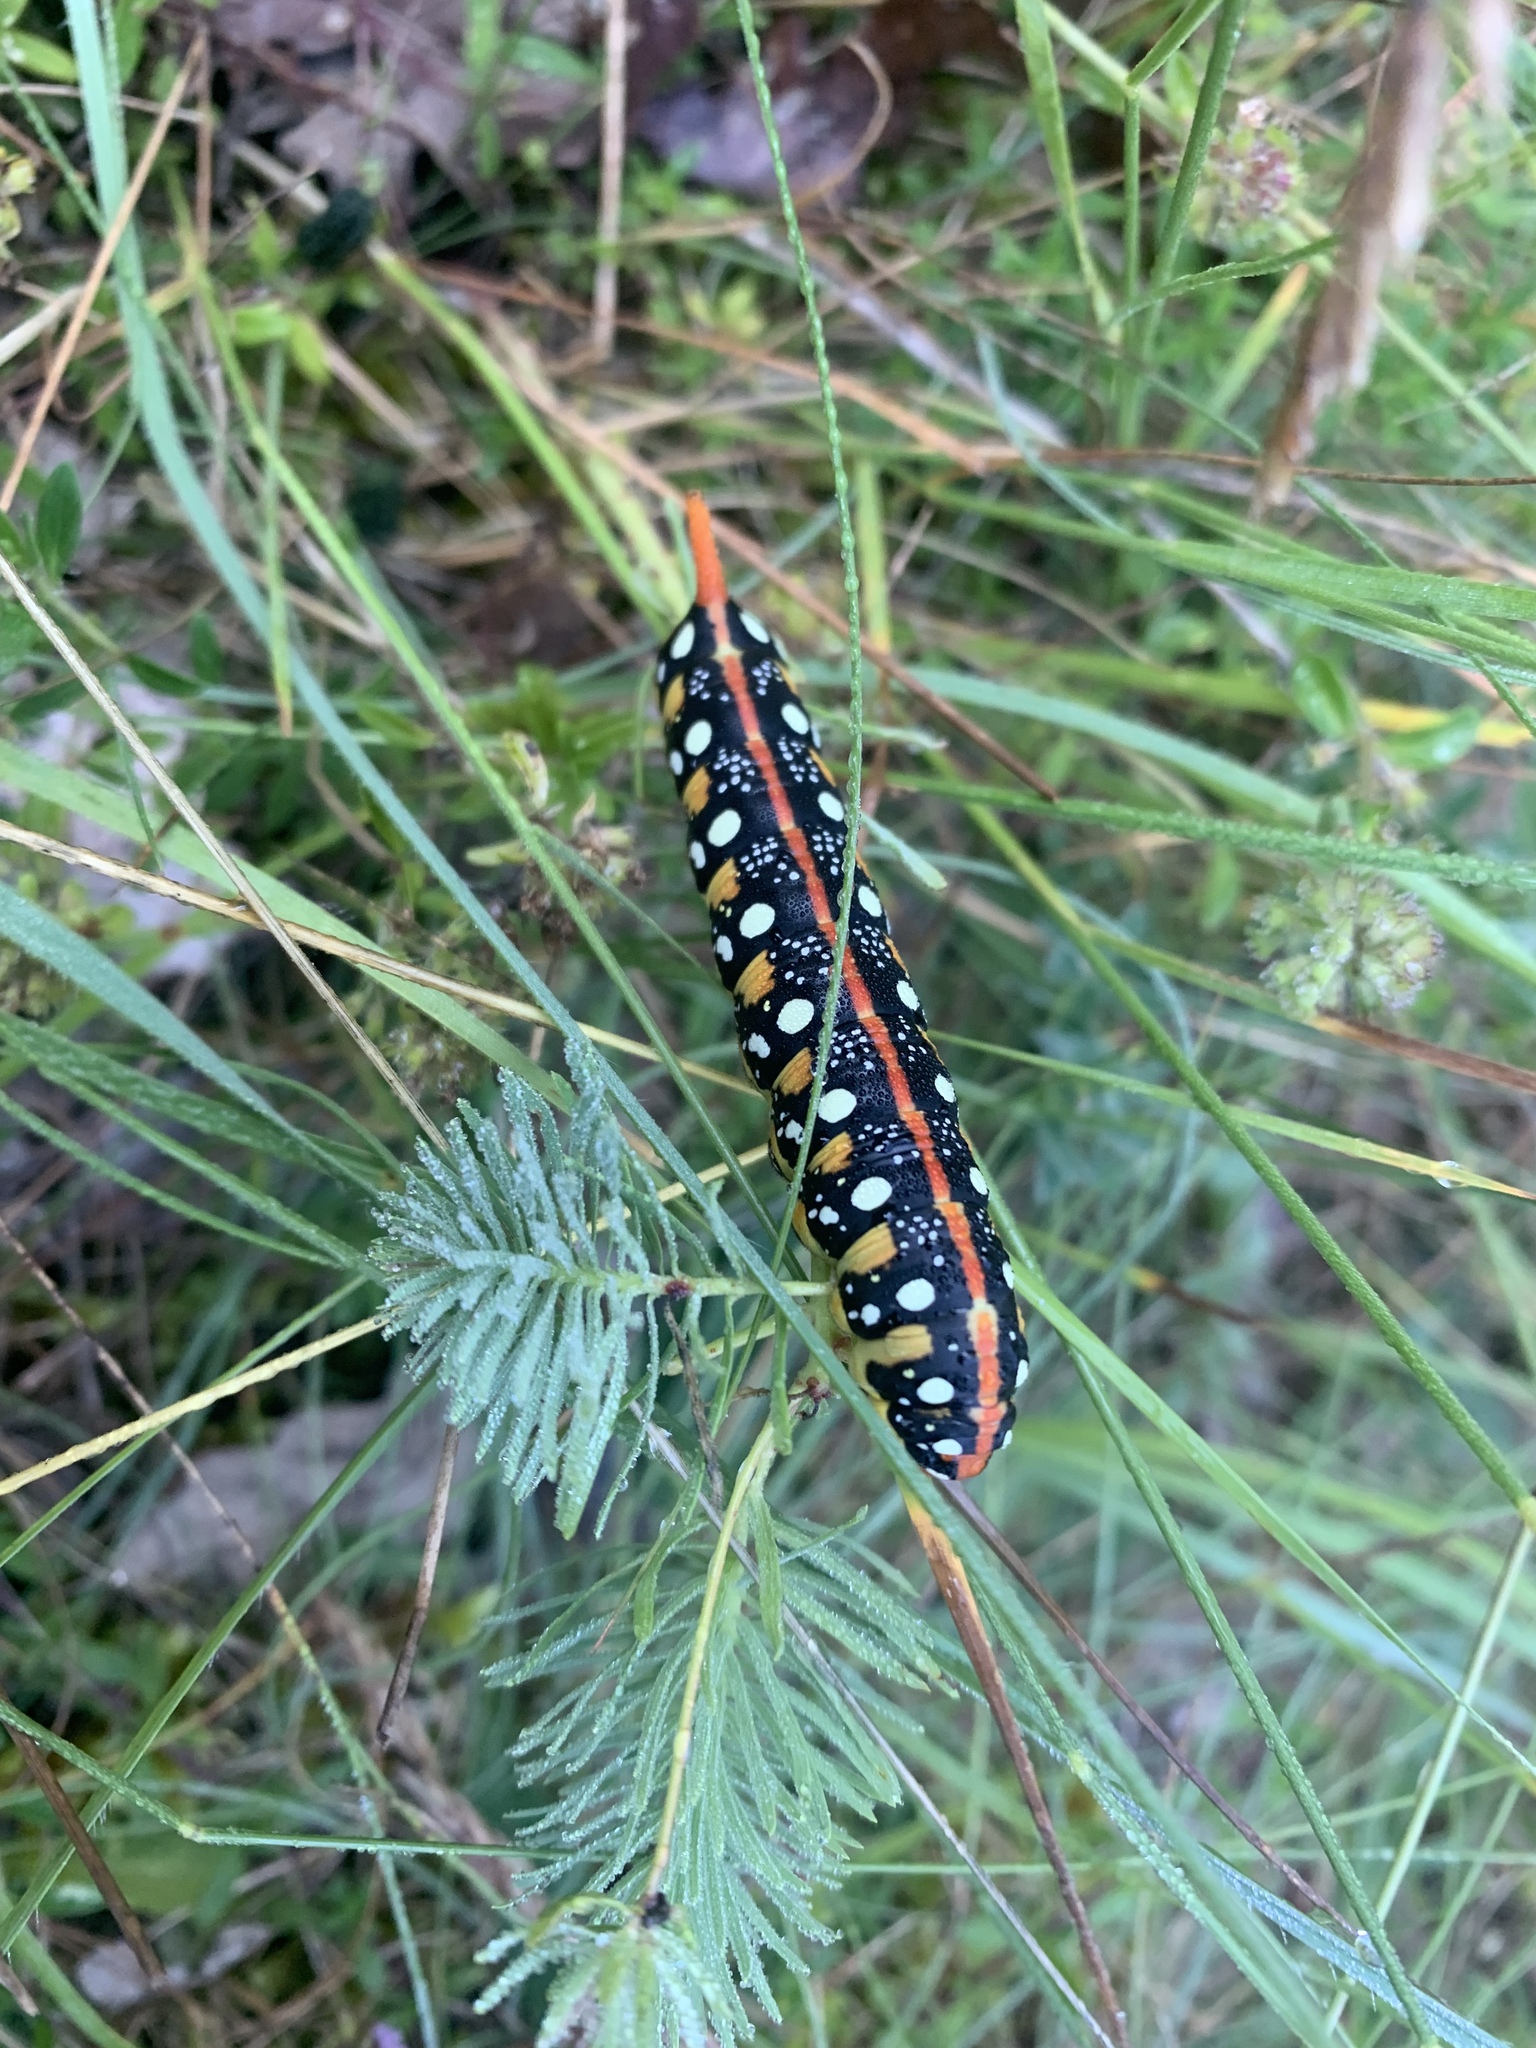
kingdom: Animalia
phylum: Arthropoda
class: Insecta
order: Lepidoptera
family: Sphingidae
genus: Hyles
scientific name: Hyles euphorbiae
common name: Spurge hawk-moth
